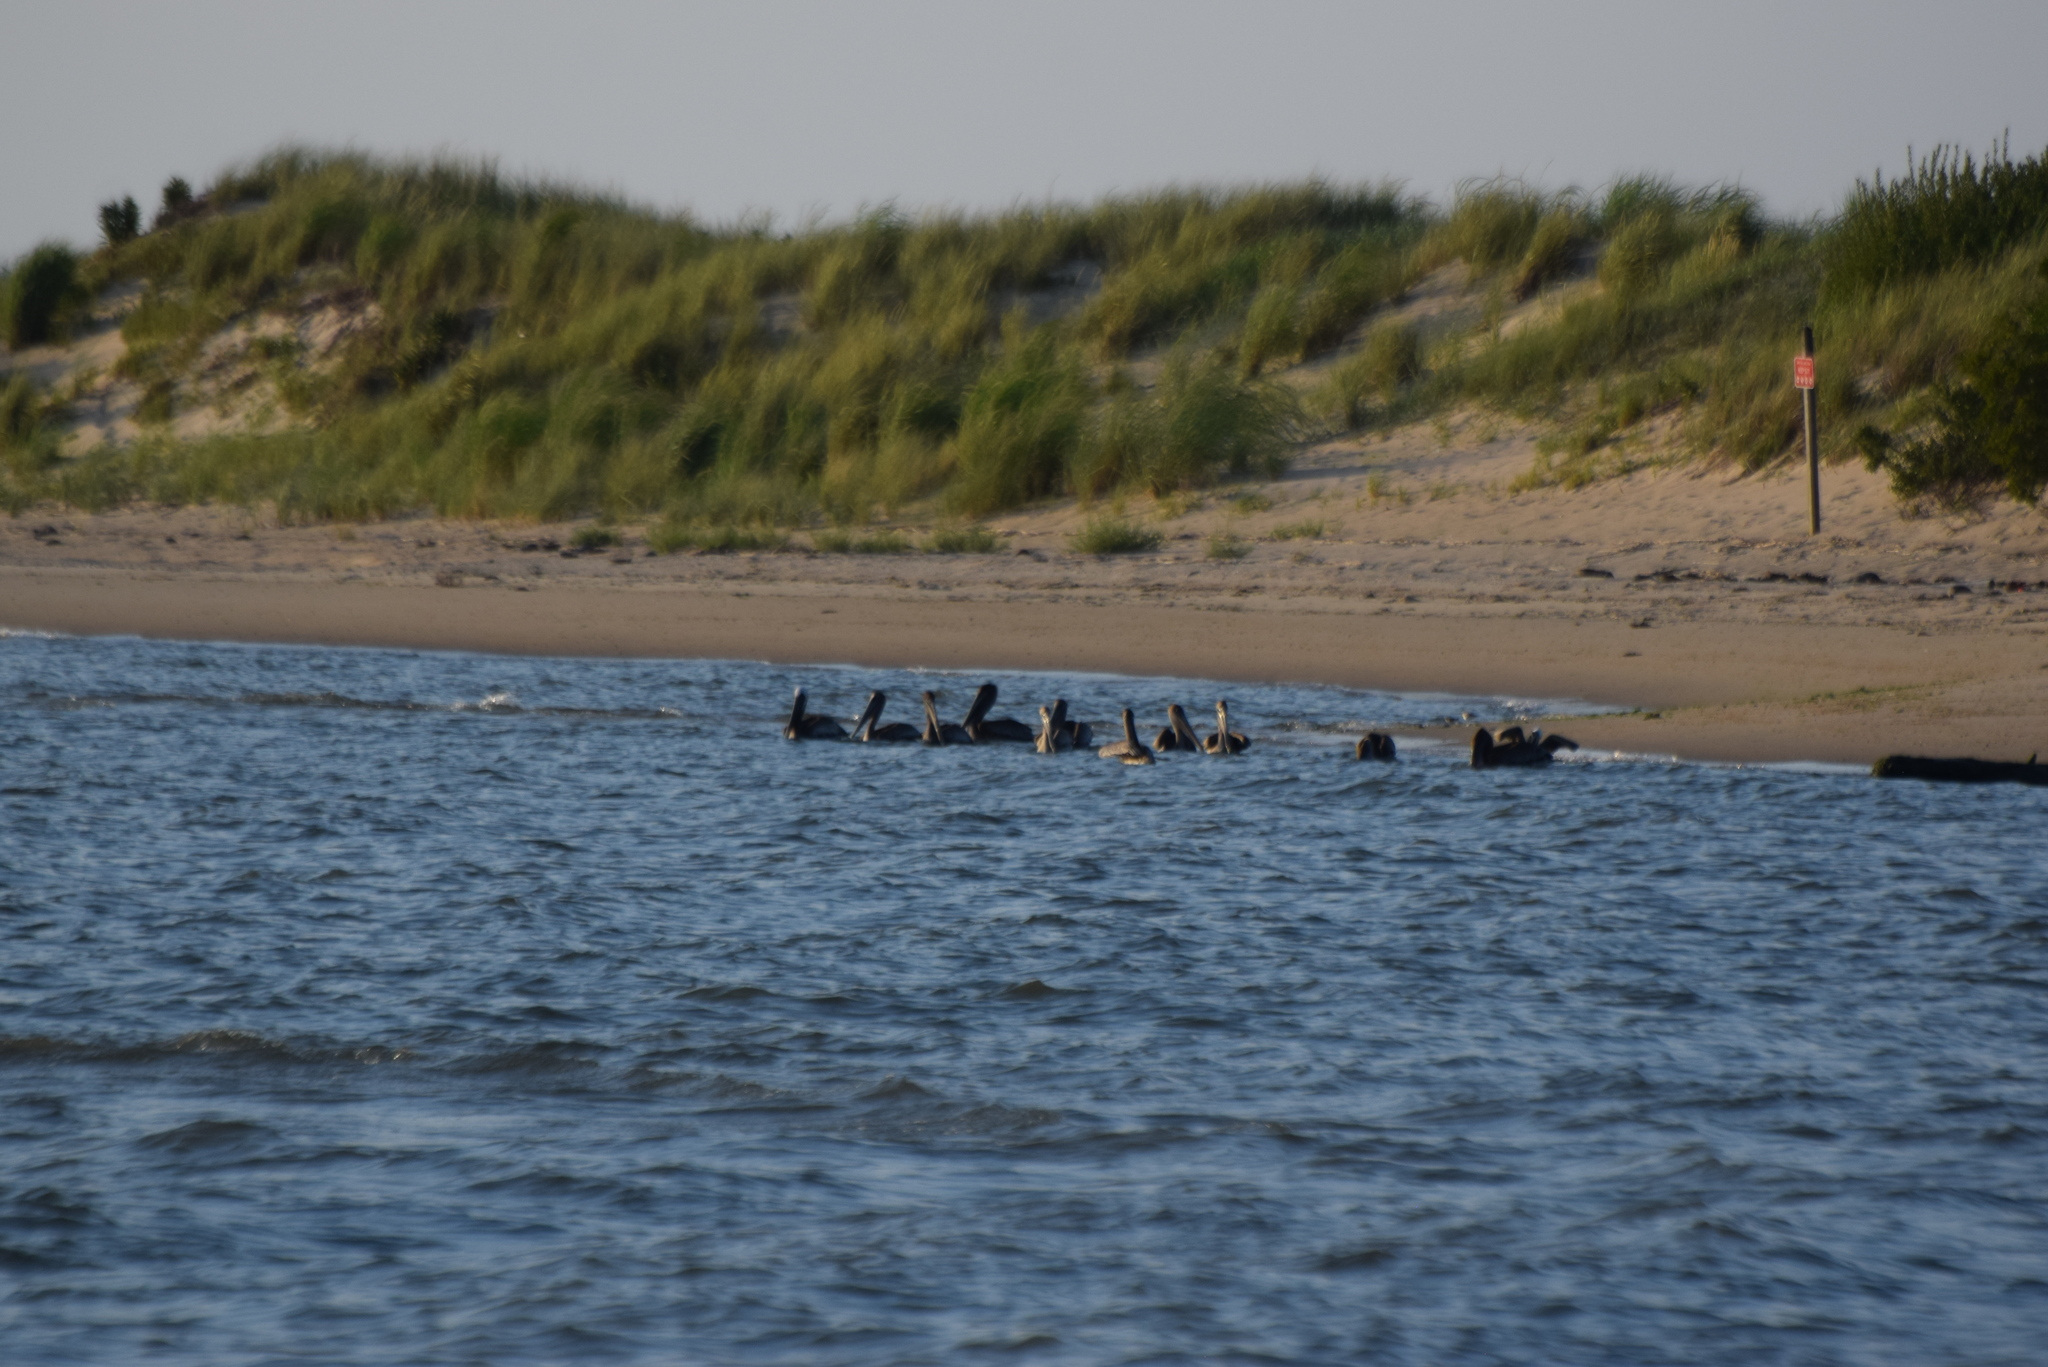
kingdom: Animalia
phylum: Chordata
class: Aves
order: Pelecaniformes
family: Pelecanidae
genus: Pelecanus
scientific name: Pelecanus occidentalis
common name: Brown pelican
